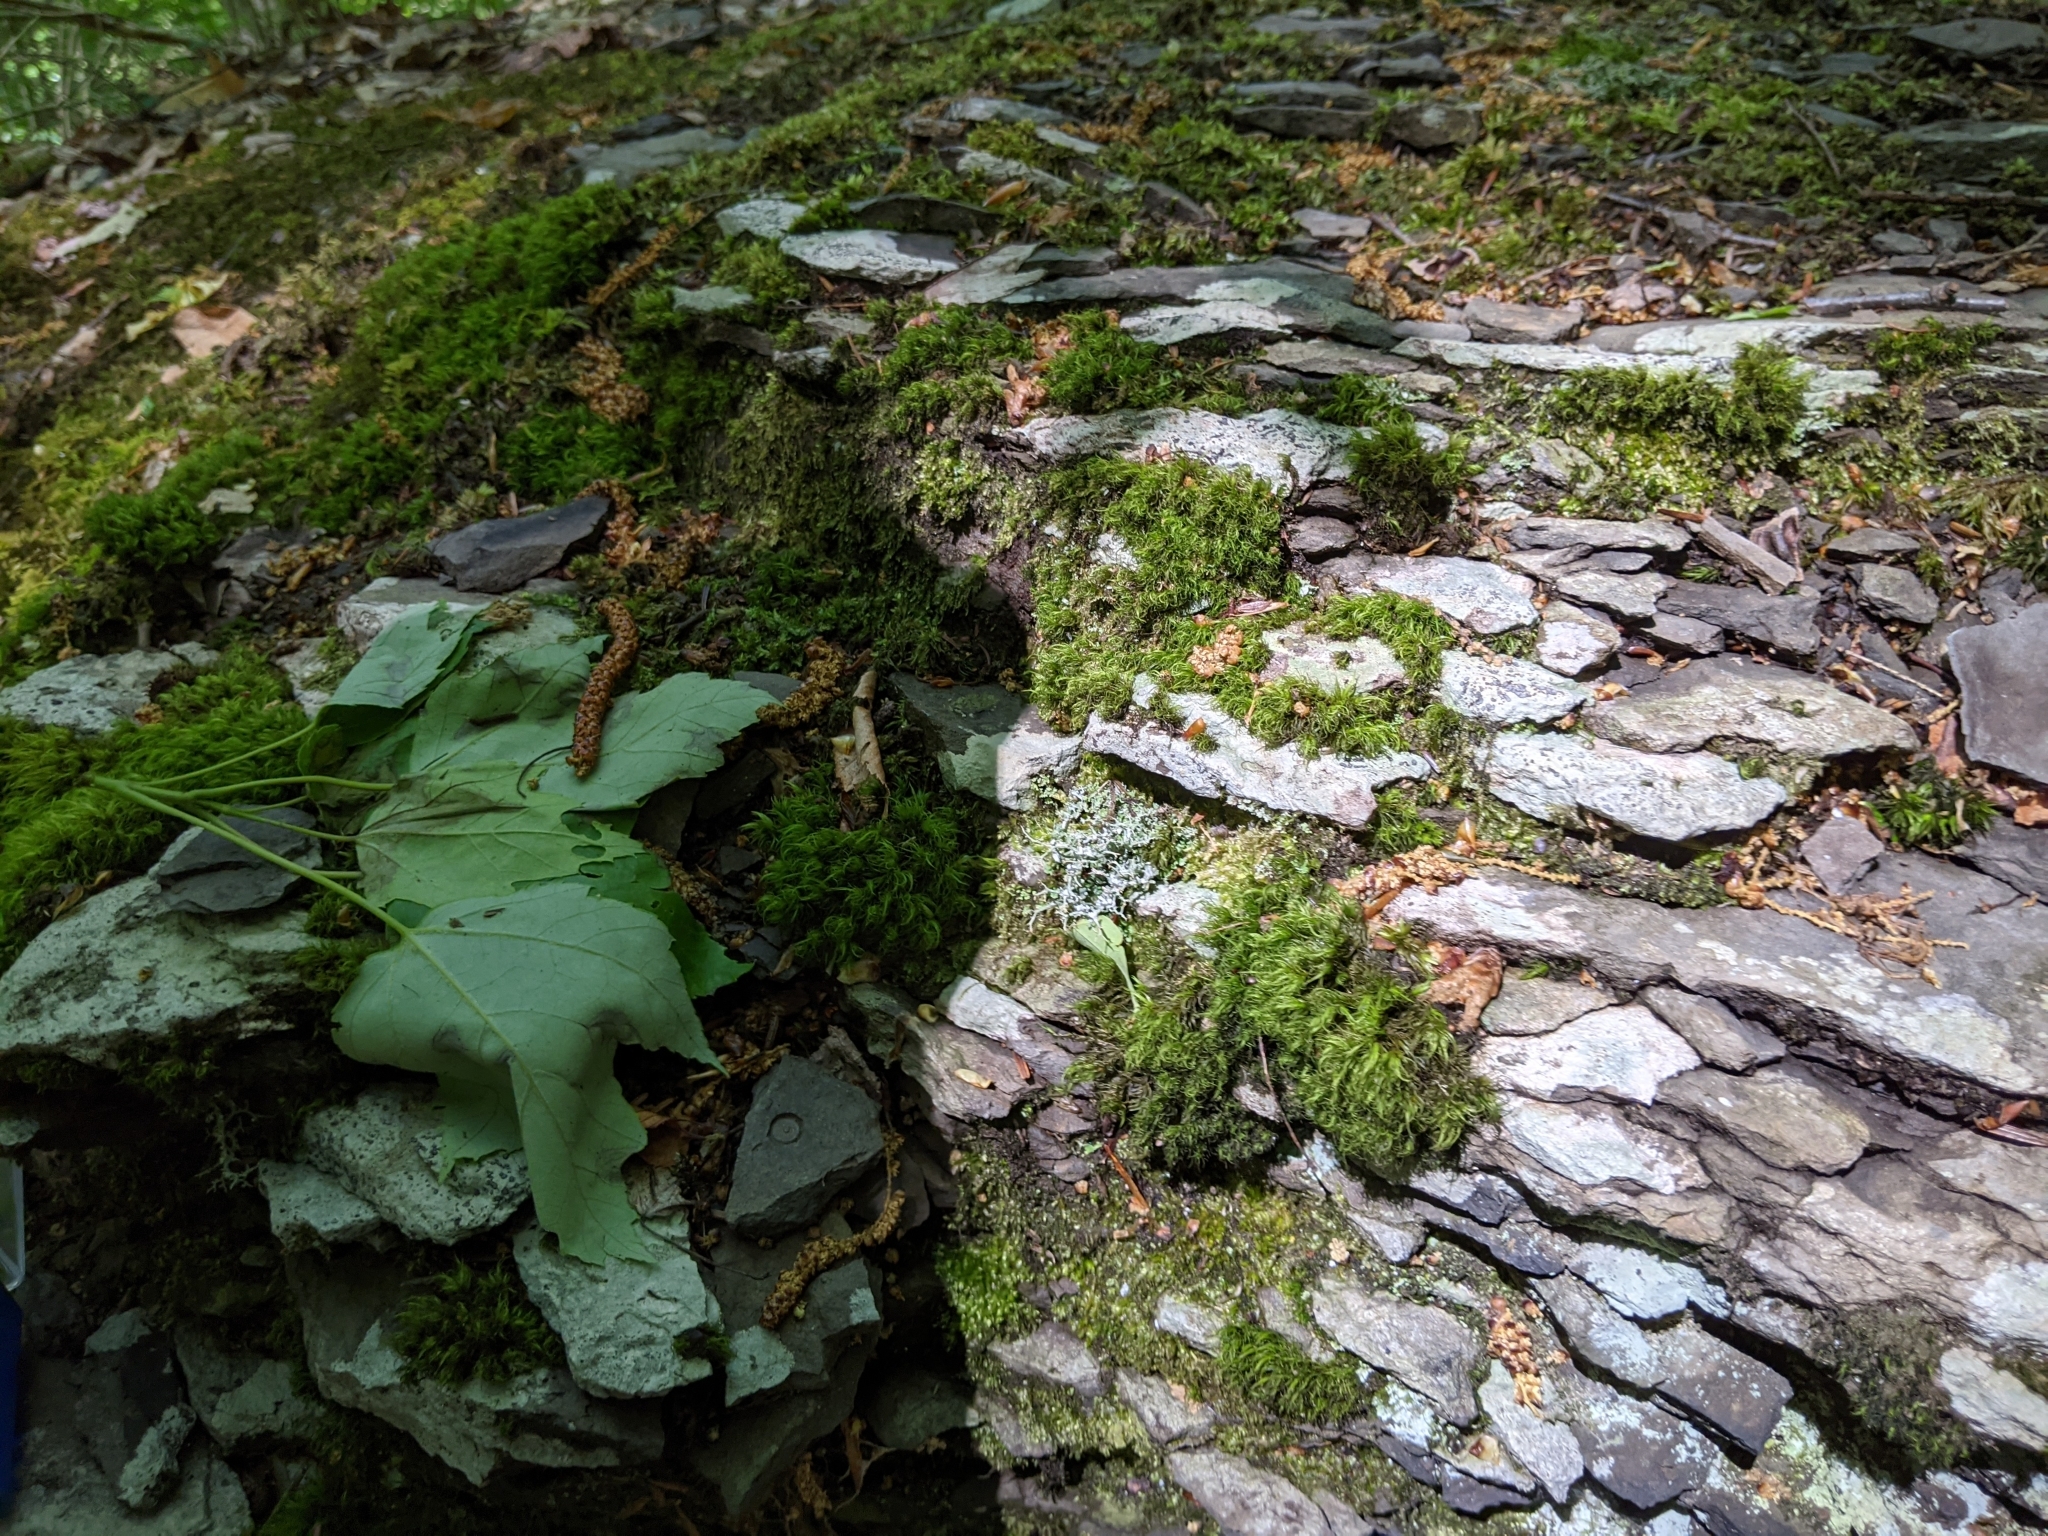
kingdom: Fungi
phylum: Ascomycota
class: Lecanoromycetes
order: Lecideales
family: Lecideaceae
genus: Porpidia
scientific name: Porpidia albocaerulescens
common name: Smokey-eyed boulder lichen
